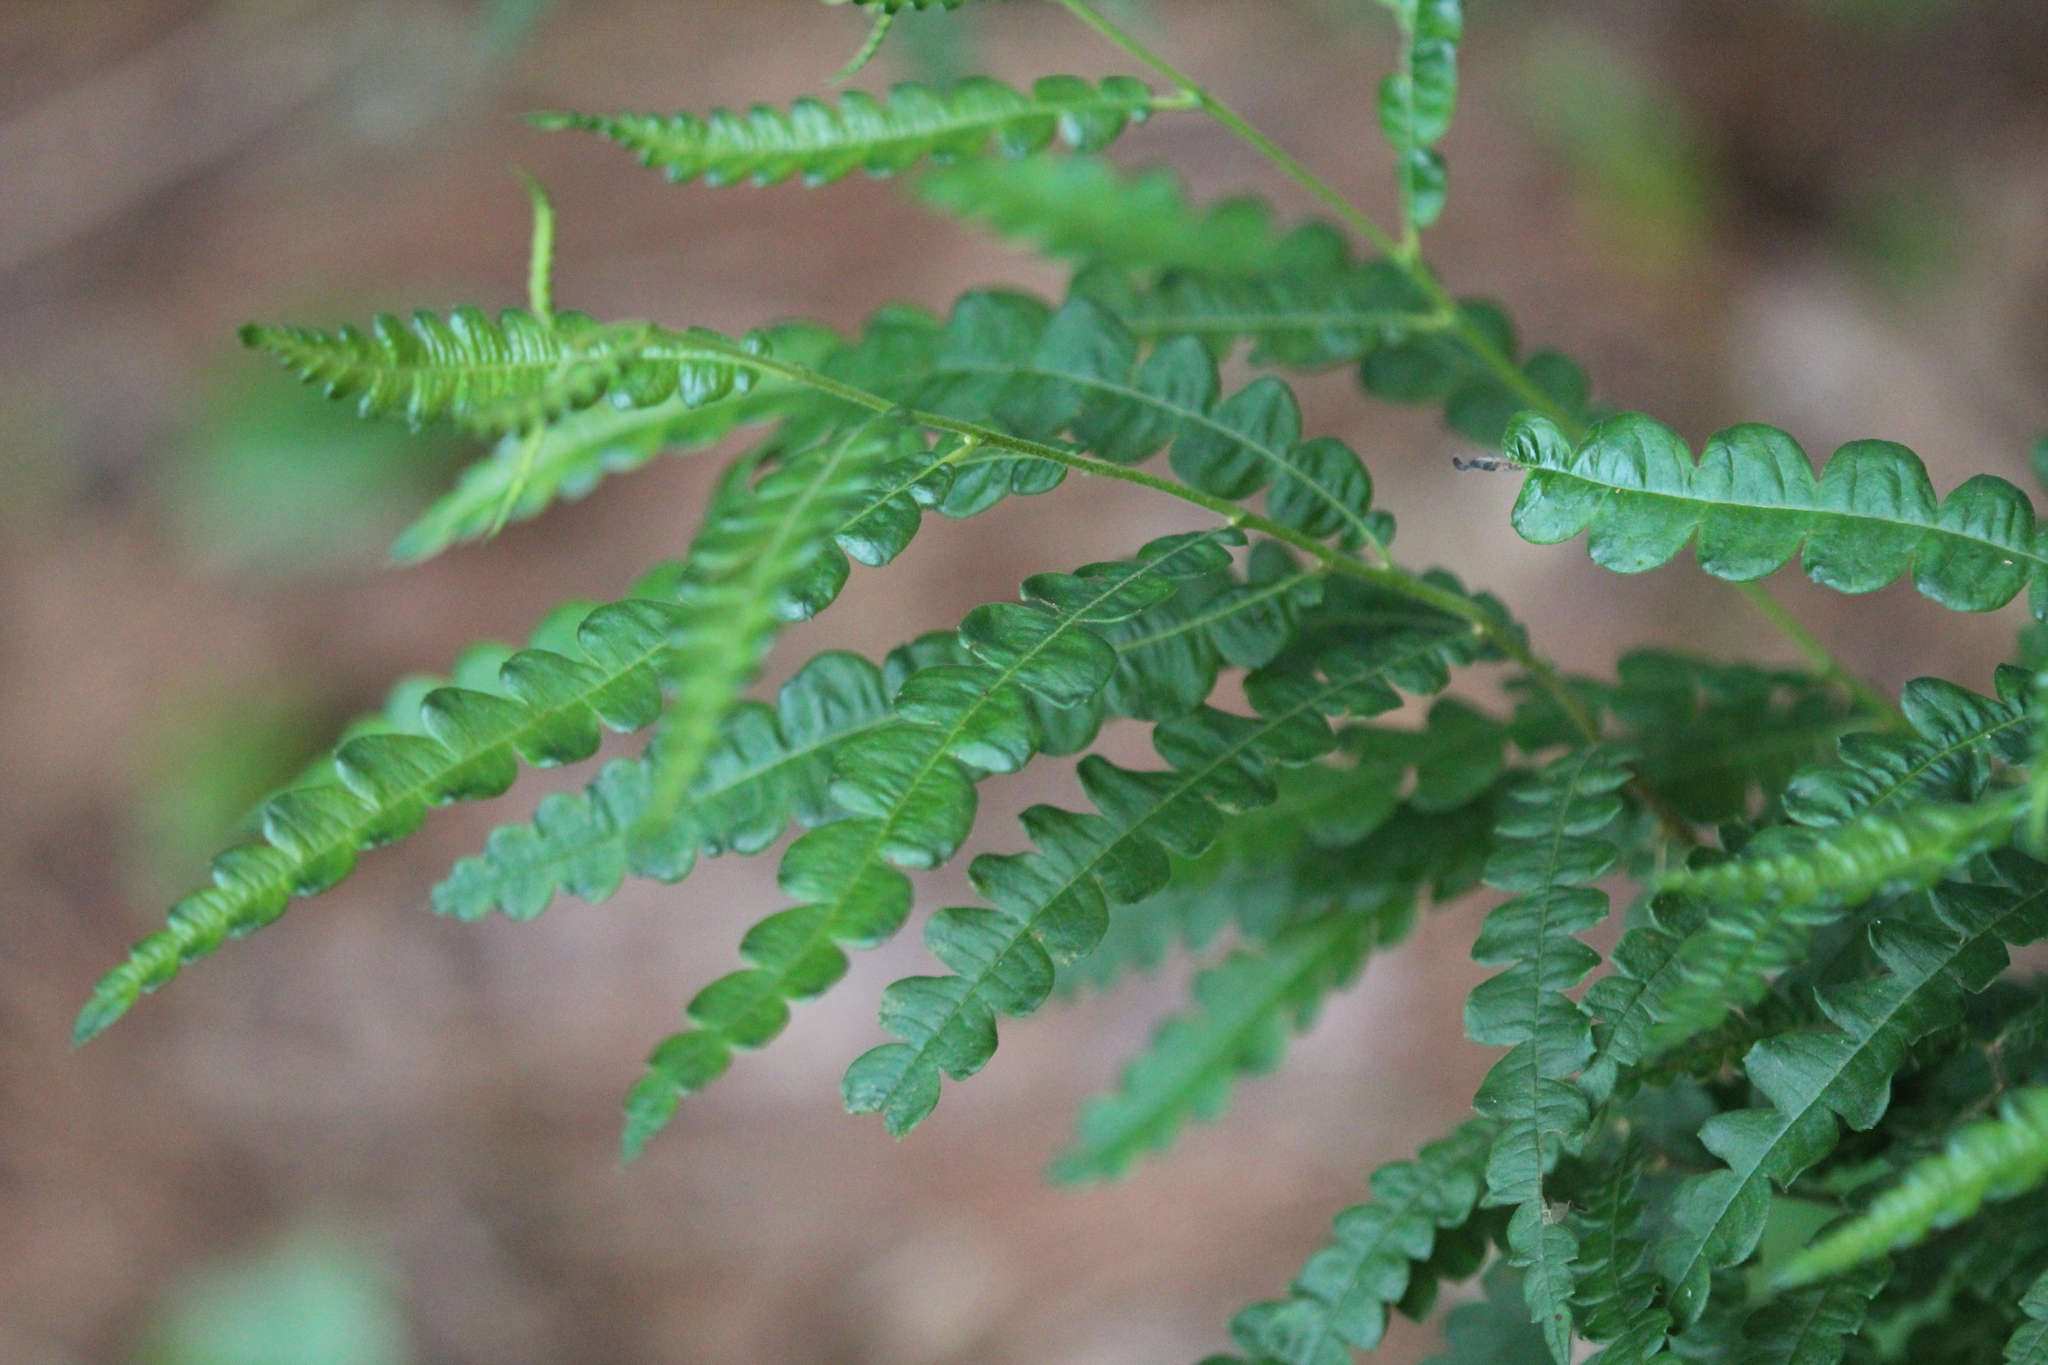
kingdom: Plantae
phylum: Tracheophyta
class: Magnoliopsida
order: Fagales
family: Myricaceae
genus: Comptonia
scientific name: Comptonia peregrina
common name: Sweet-fern
